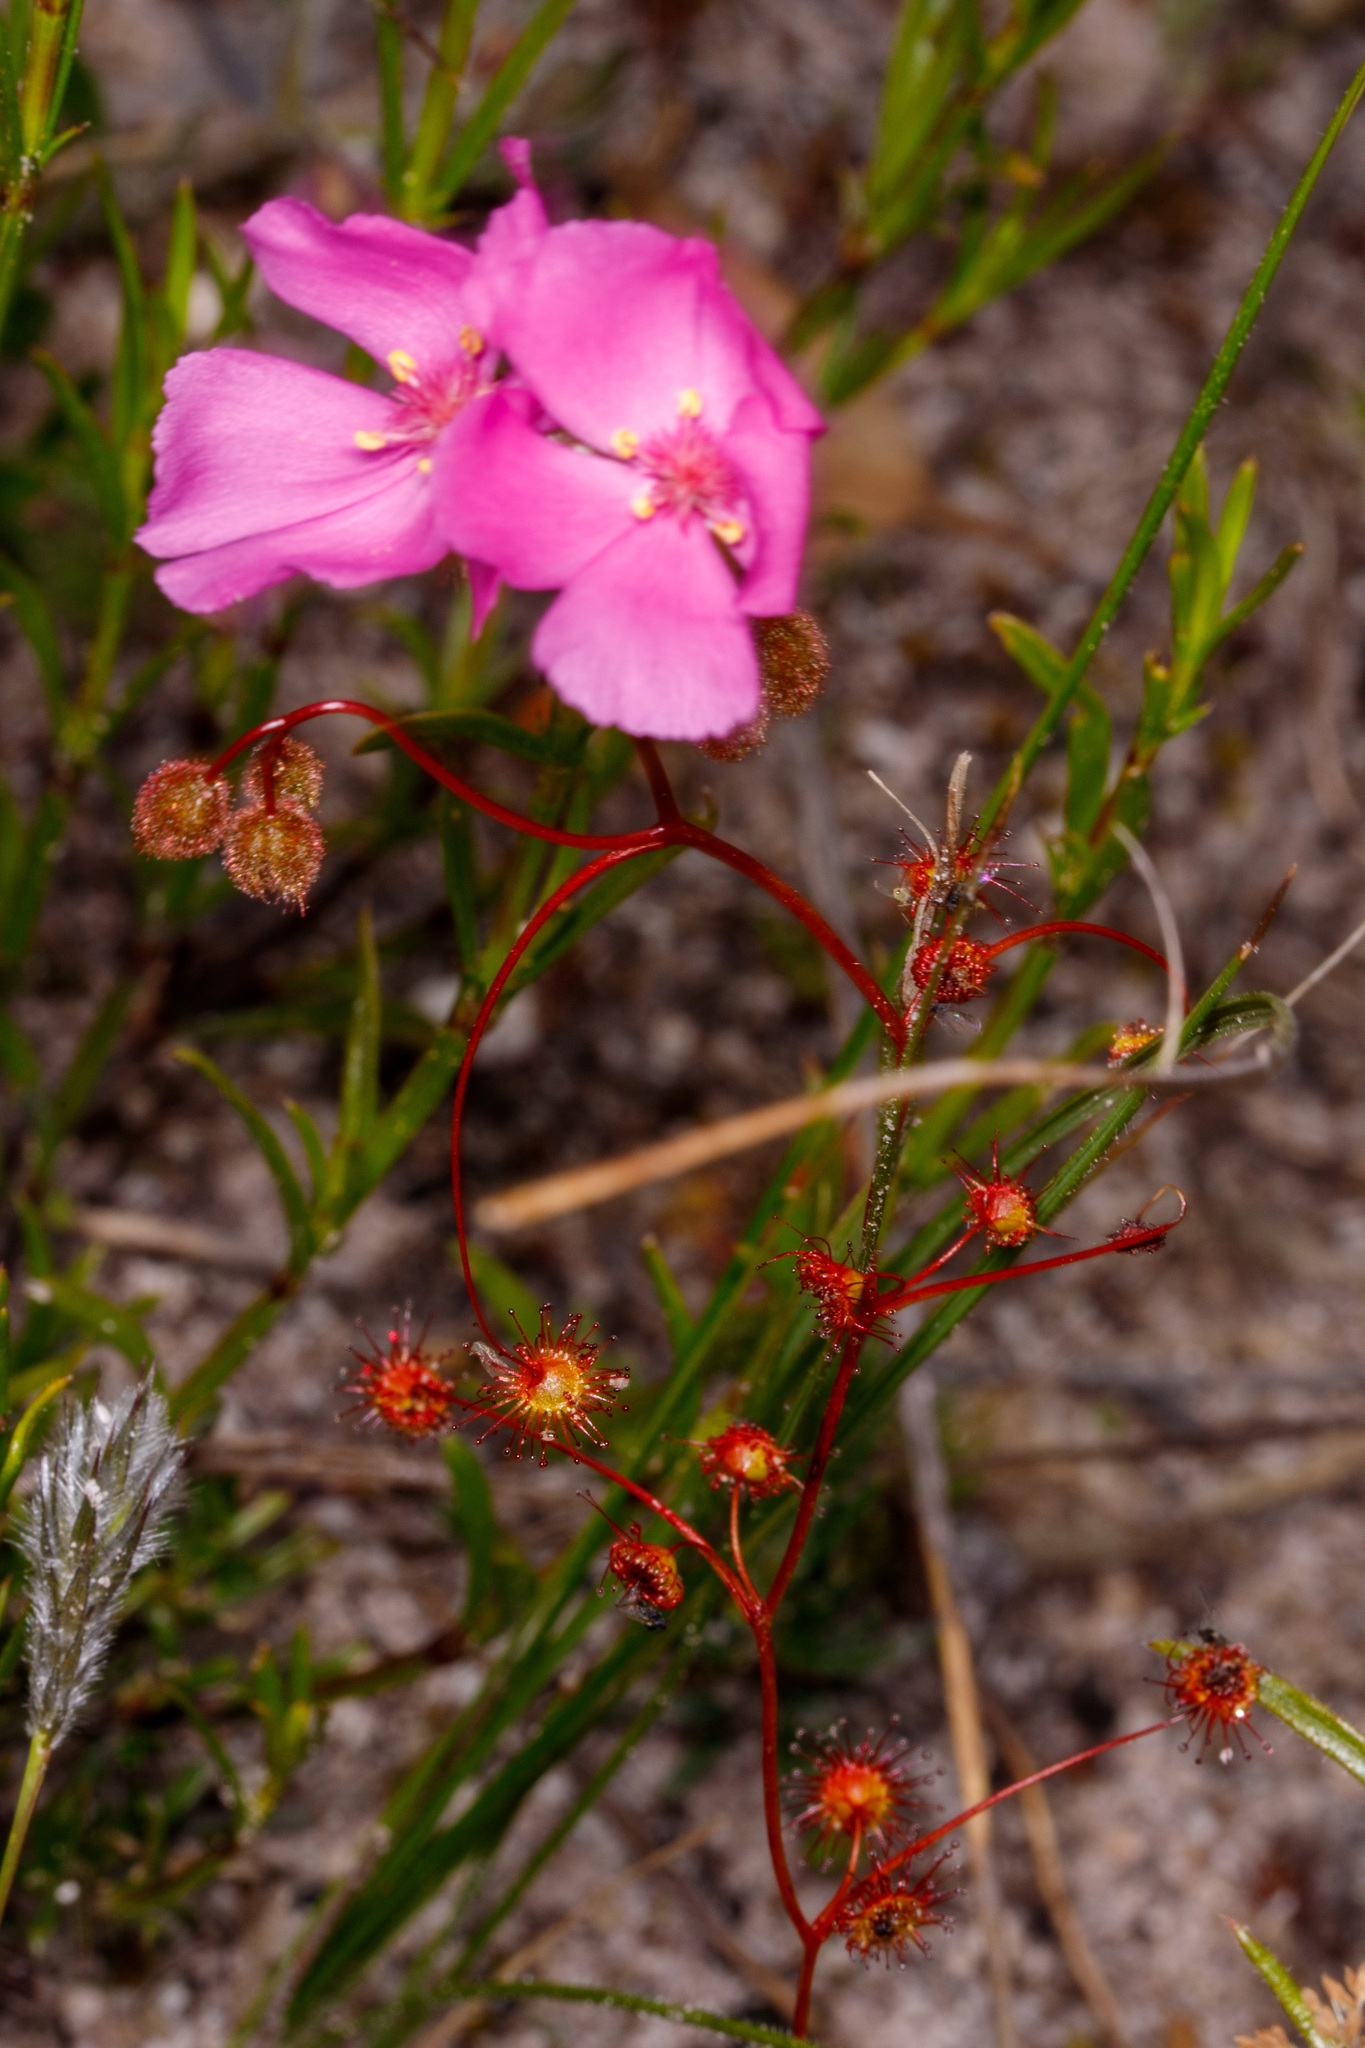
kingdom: Plantae
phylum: Tracheophyta
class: Magnoliopsida
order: Caryophyllales
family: Droseraceae
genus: Drosera
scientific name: Drosera
